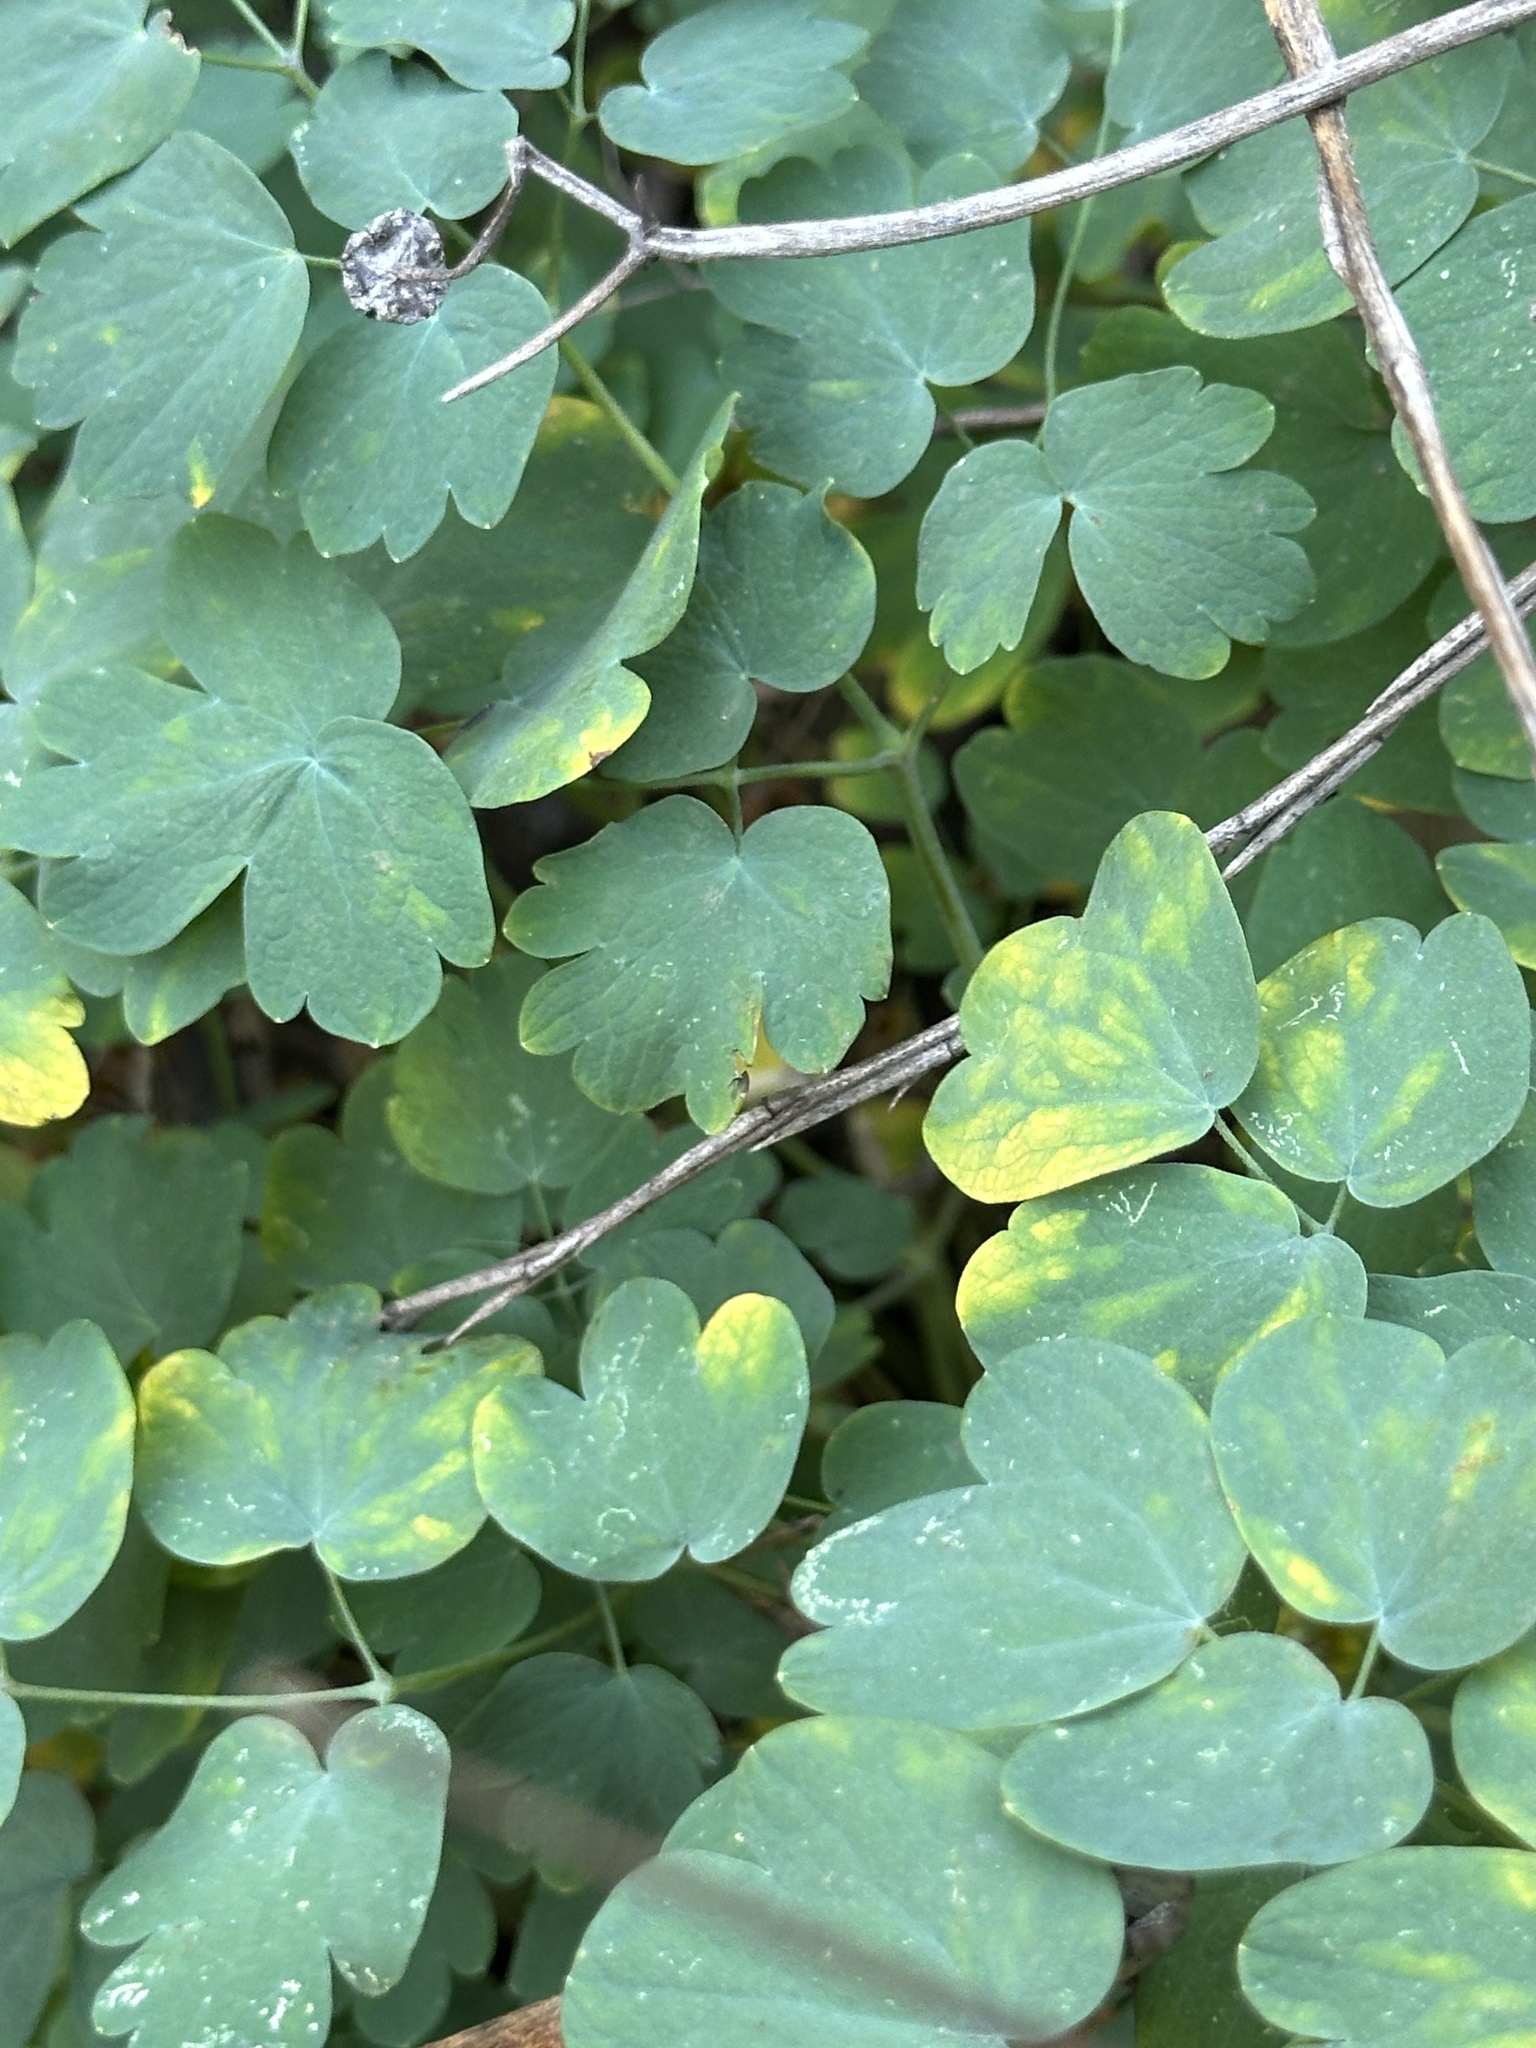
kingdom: Plantae
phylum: Tracheophyta
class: Magnoliopsida
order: Ranunculales
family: Ranunculaceae
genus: Thalictrum
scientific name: Thalictrum fendleri
